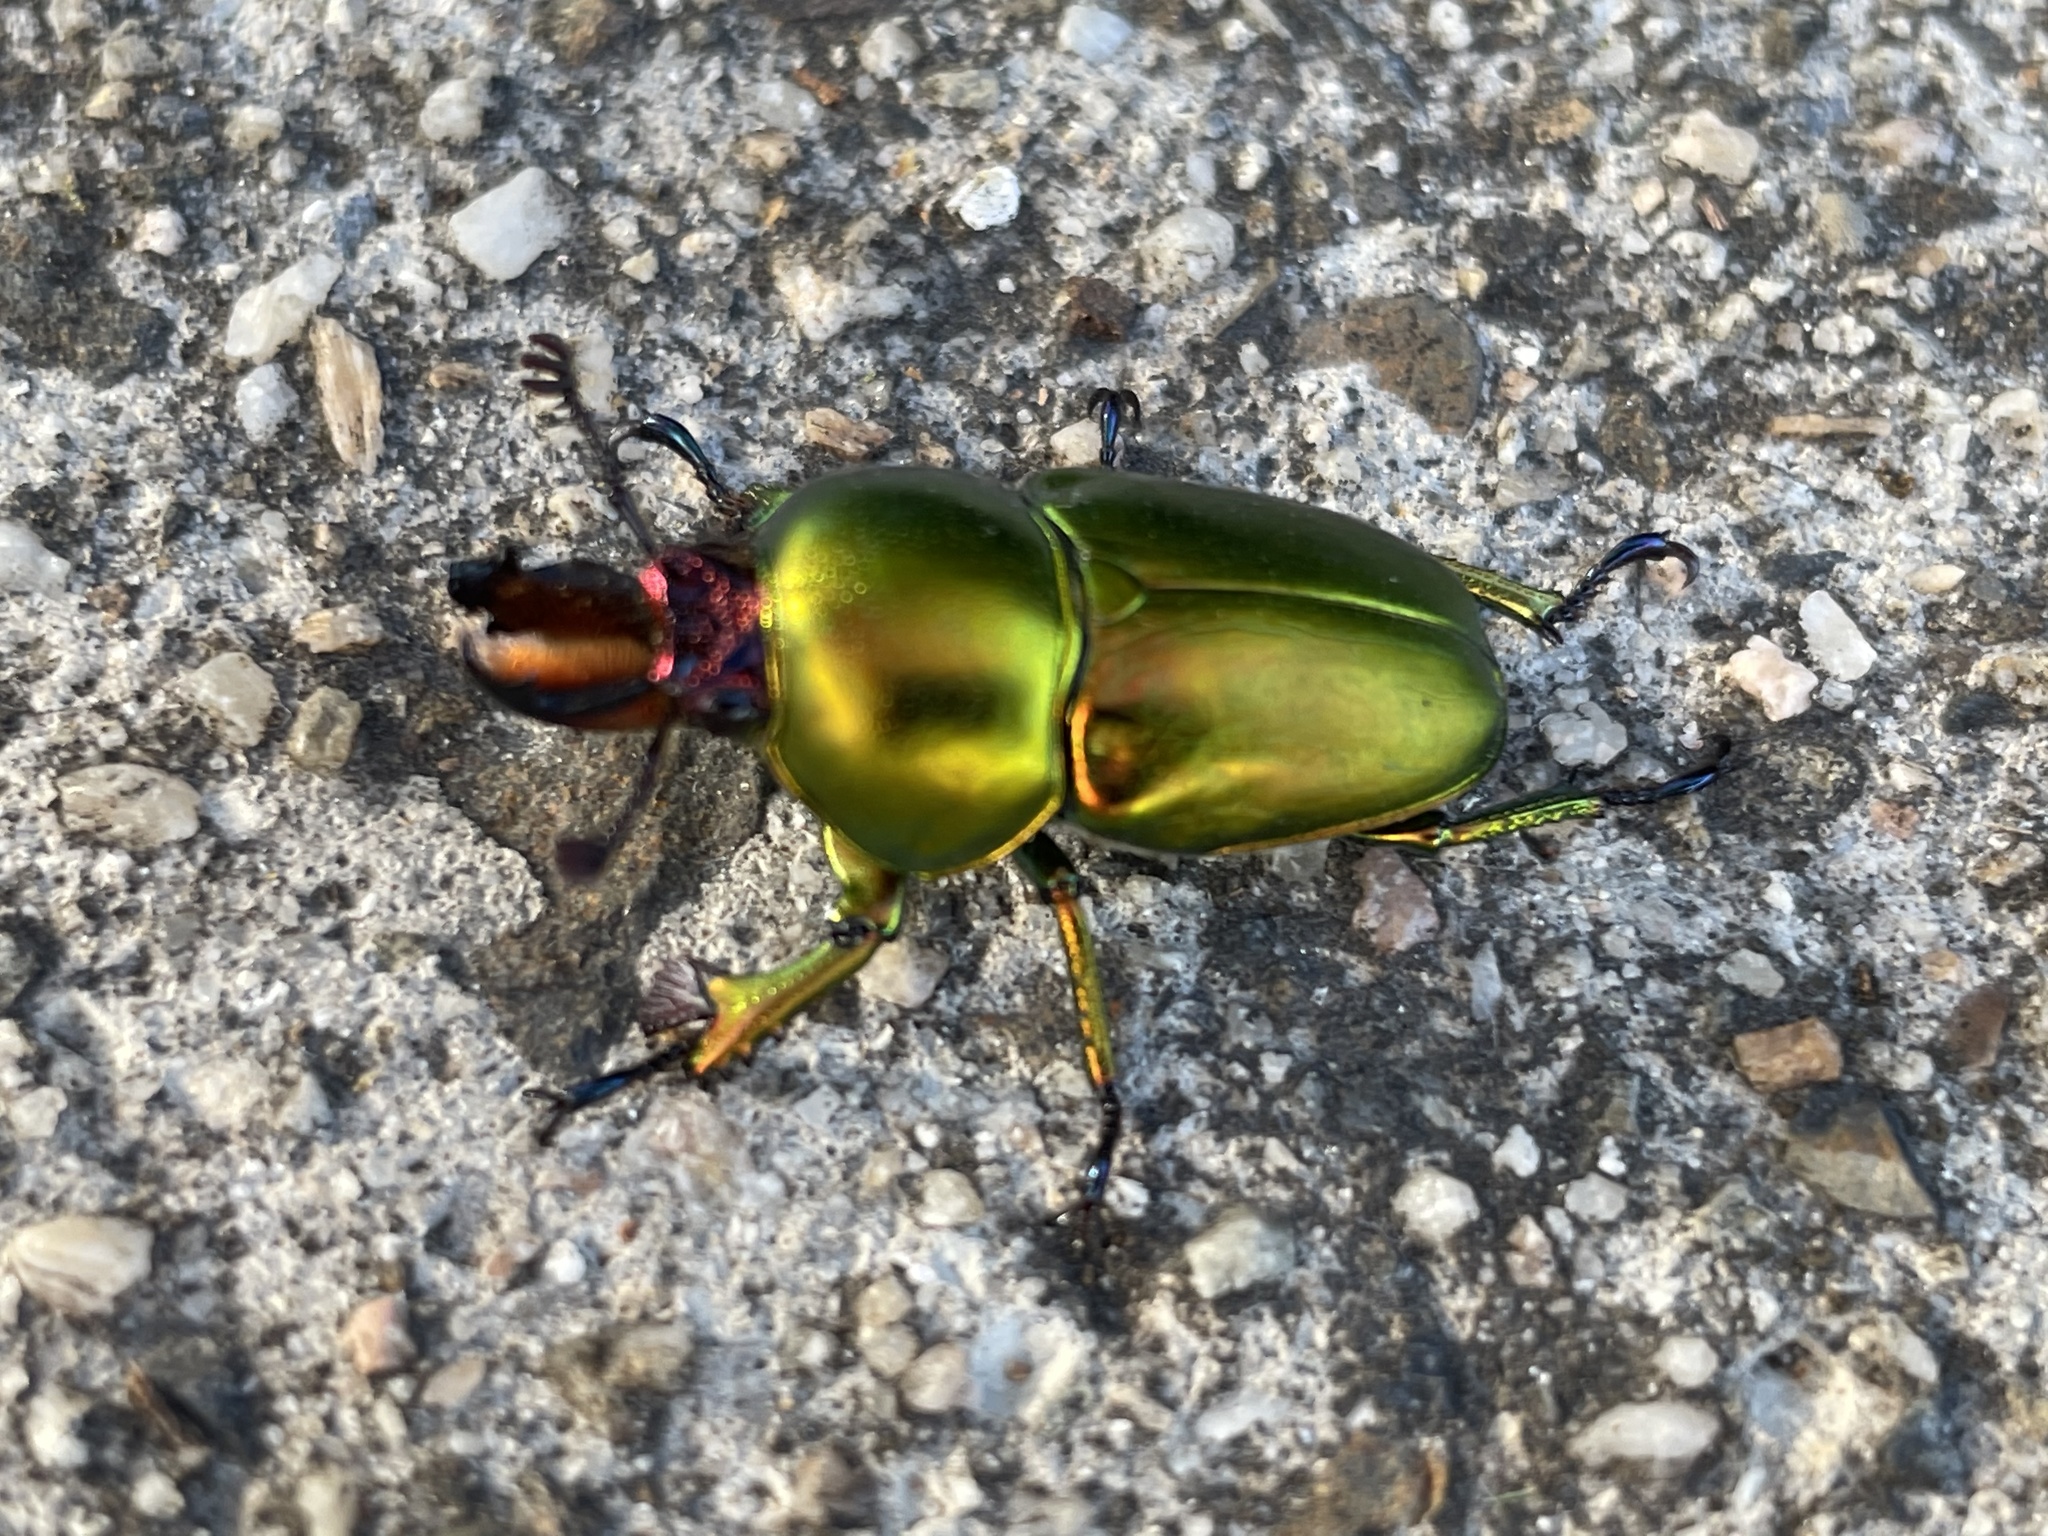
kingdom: Animalia
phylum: Arthropoda
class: Insecta
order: Coleoptera
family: Lucanidae
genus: Lamprima
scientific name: Lamprima aurata
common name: Golden stag beetle
